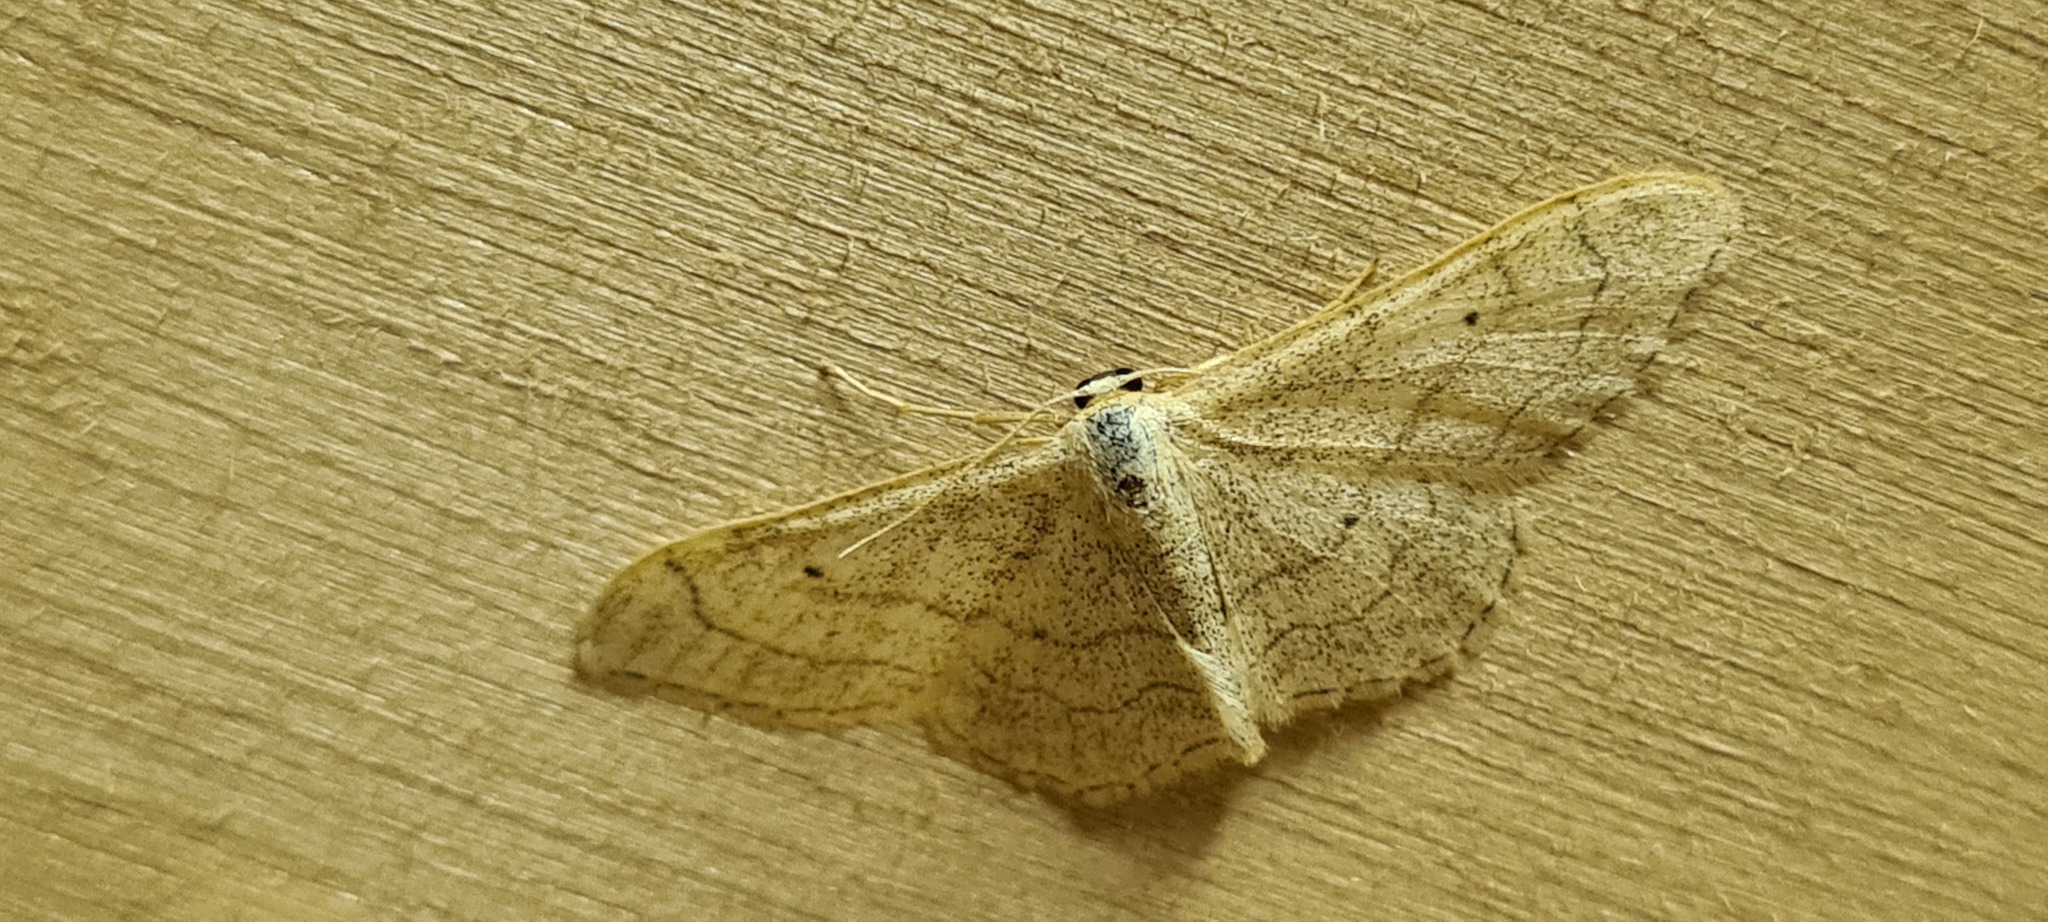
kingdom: Animalia
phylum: Arthropoda
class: Insecta
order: Lepidoptera
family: Geometridae
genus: Idaea
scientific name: Idaea aversata
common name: Riband wave
